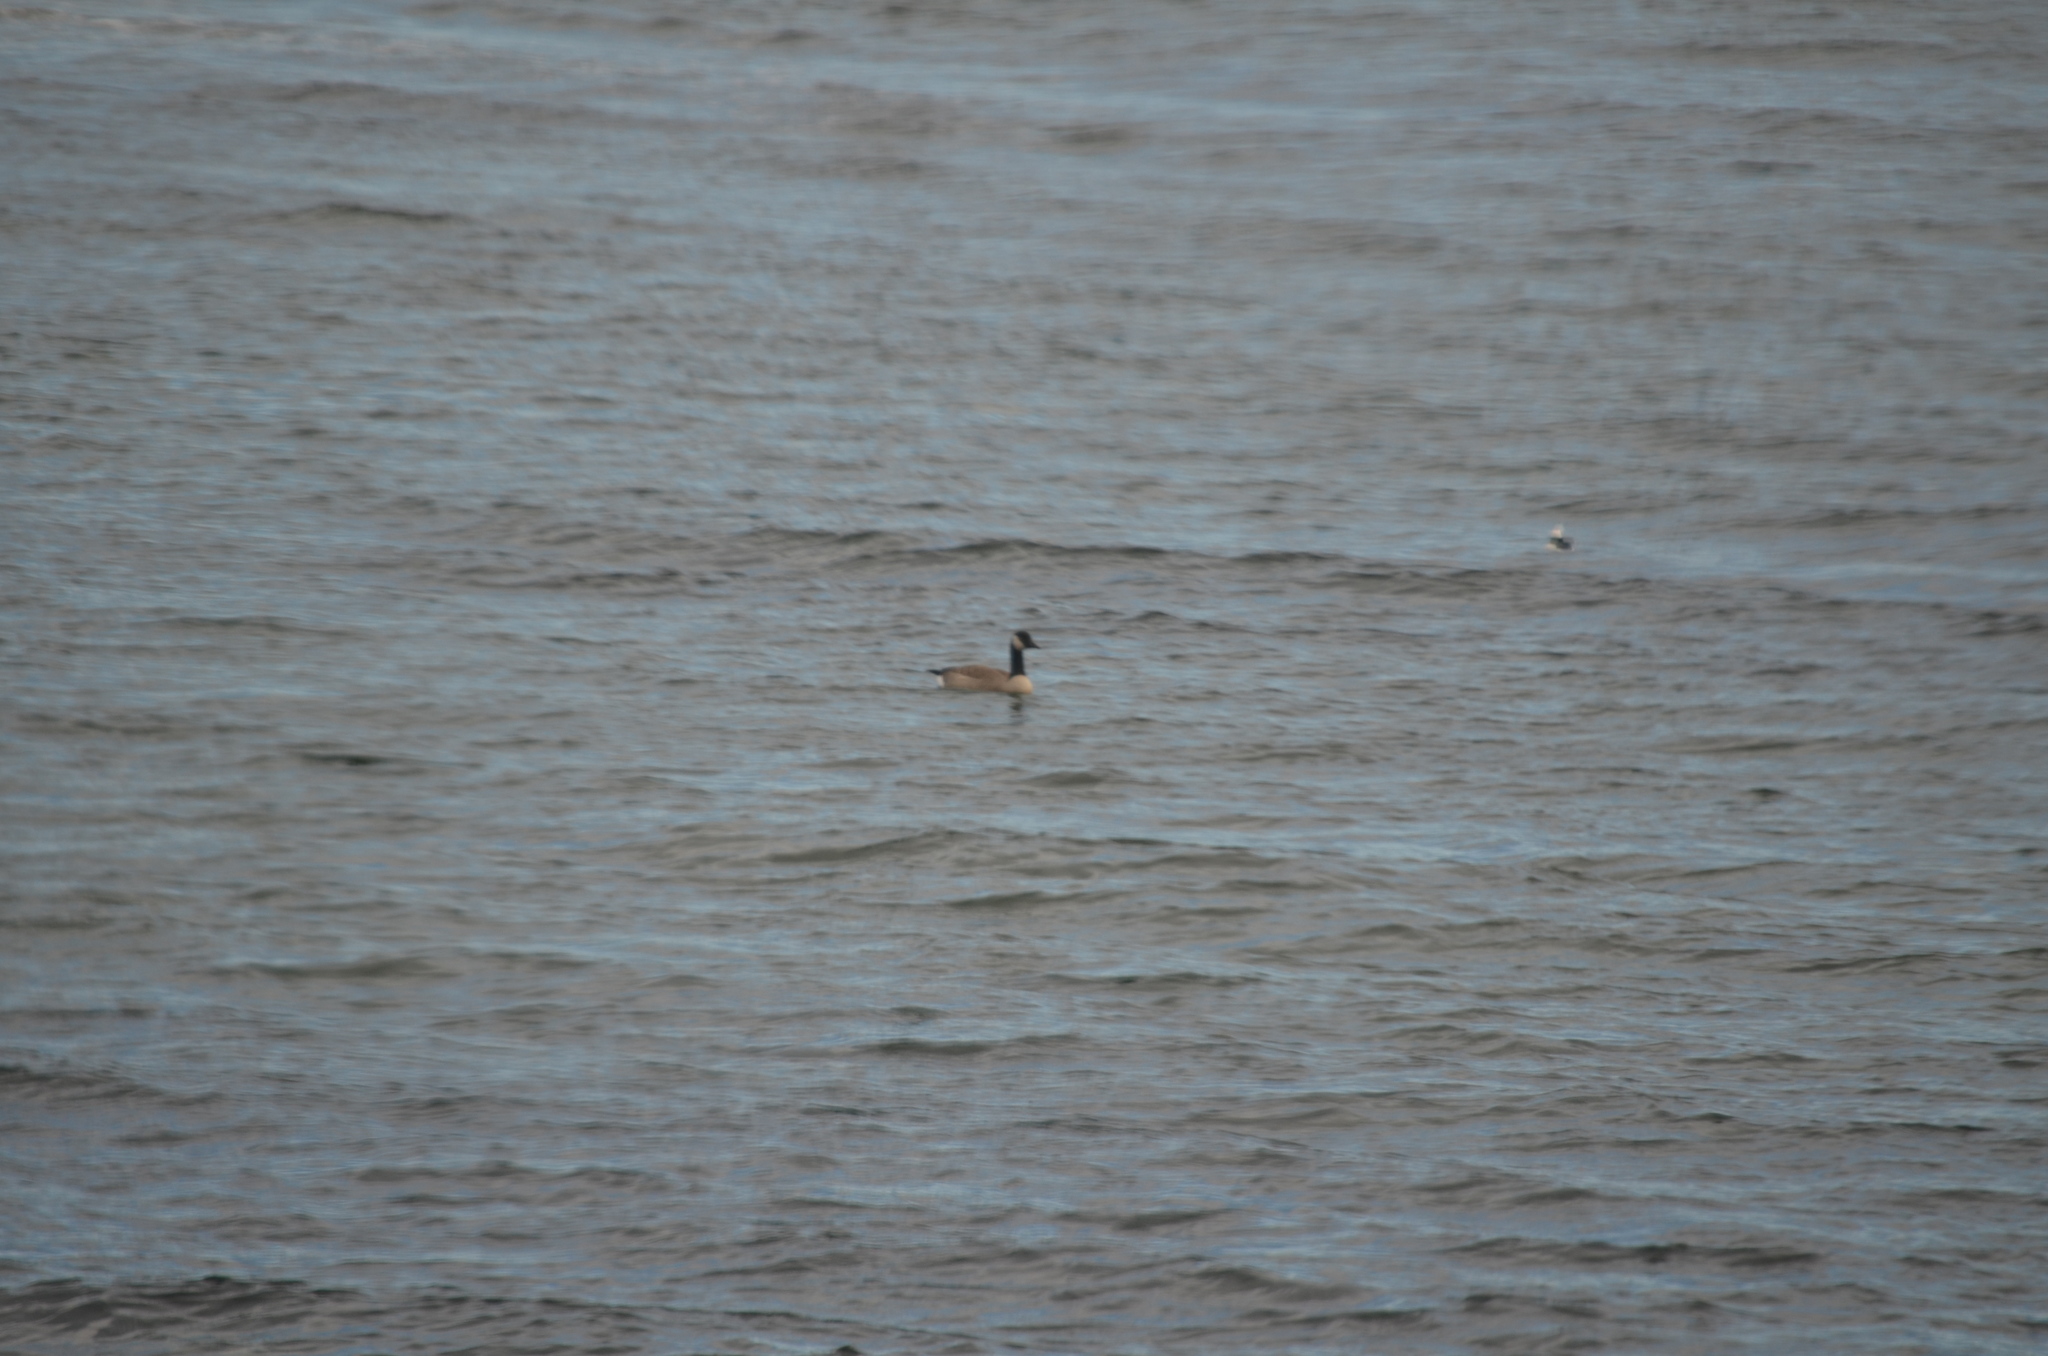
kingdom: Animalia
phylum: Chordata
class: Aves
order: Anseriformes
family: Anatidae
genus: Branta
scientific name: Branta canadensis
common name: Canada goose
